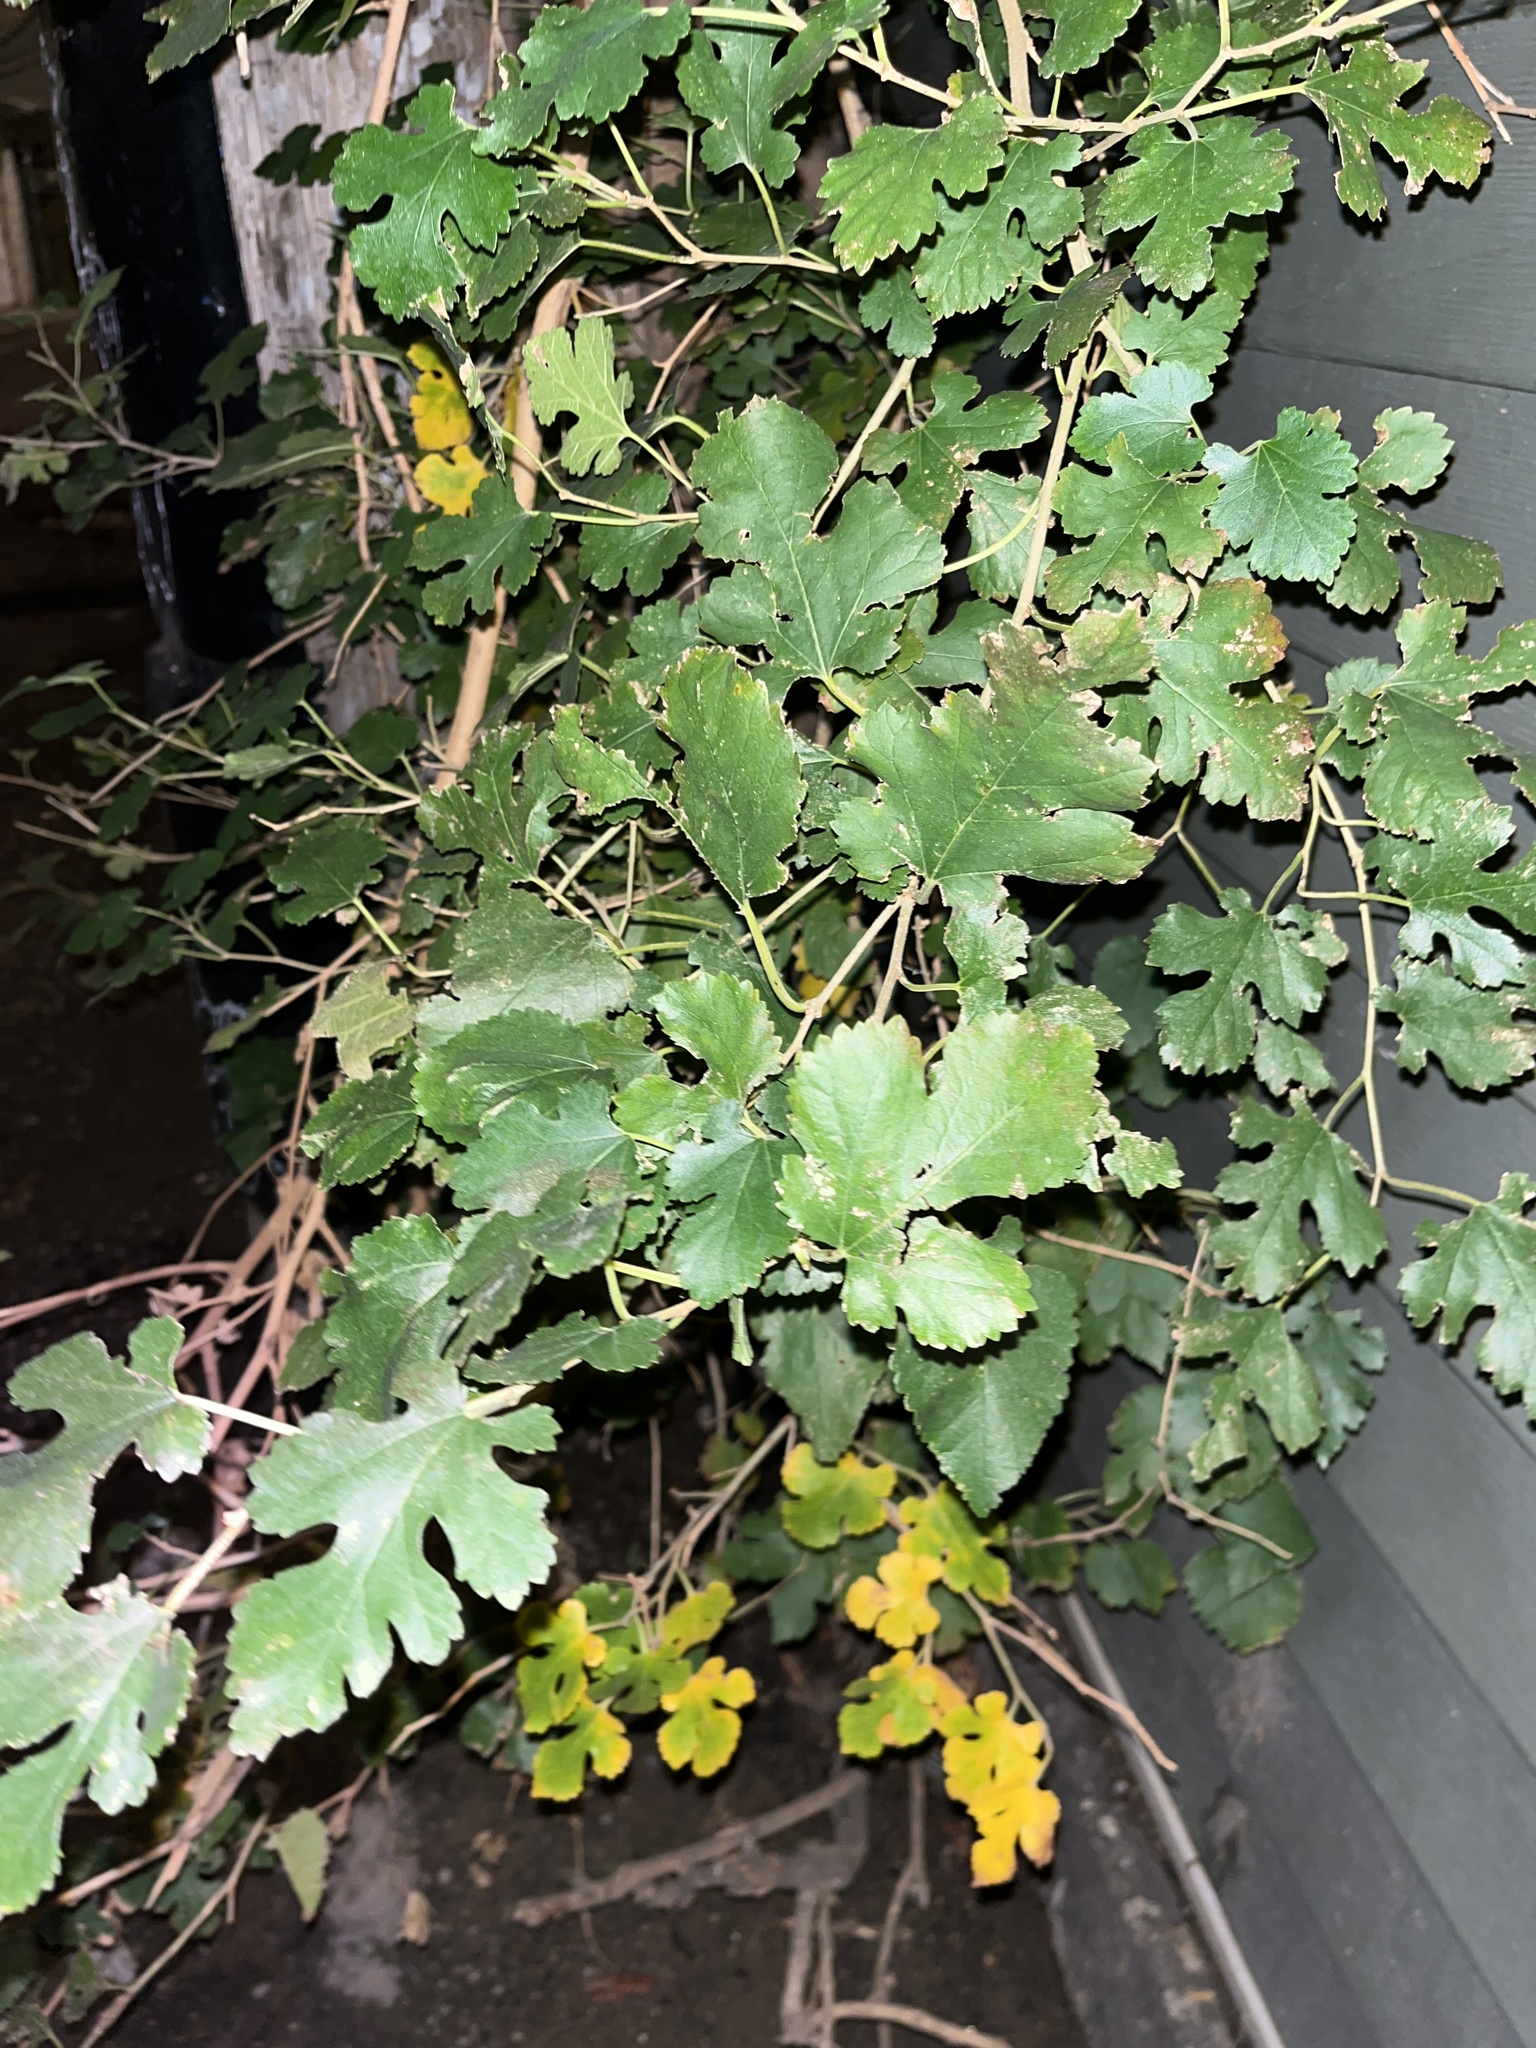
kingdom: Plantae
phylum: Tracheophyta
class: Magnoliopsida
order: Rosales
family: Moraceae
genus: Morus
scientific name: Morus alba
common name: White mulberry
